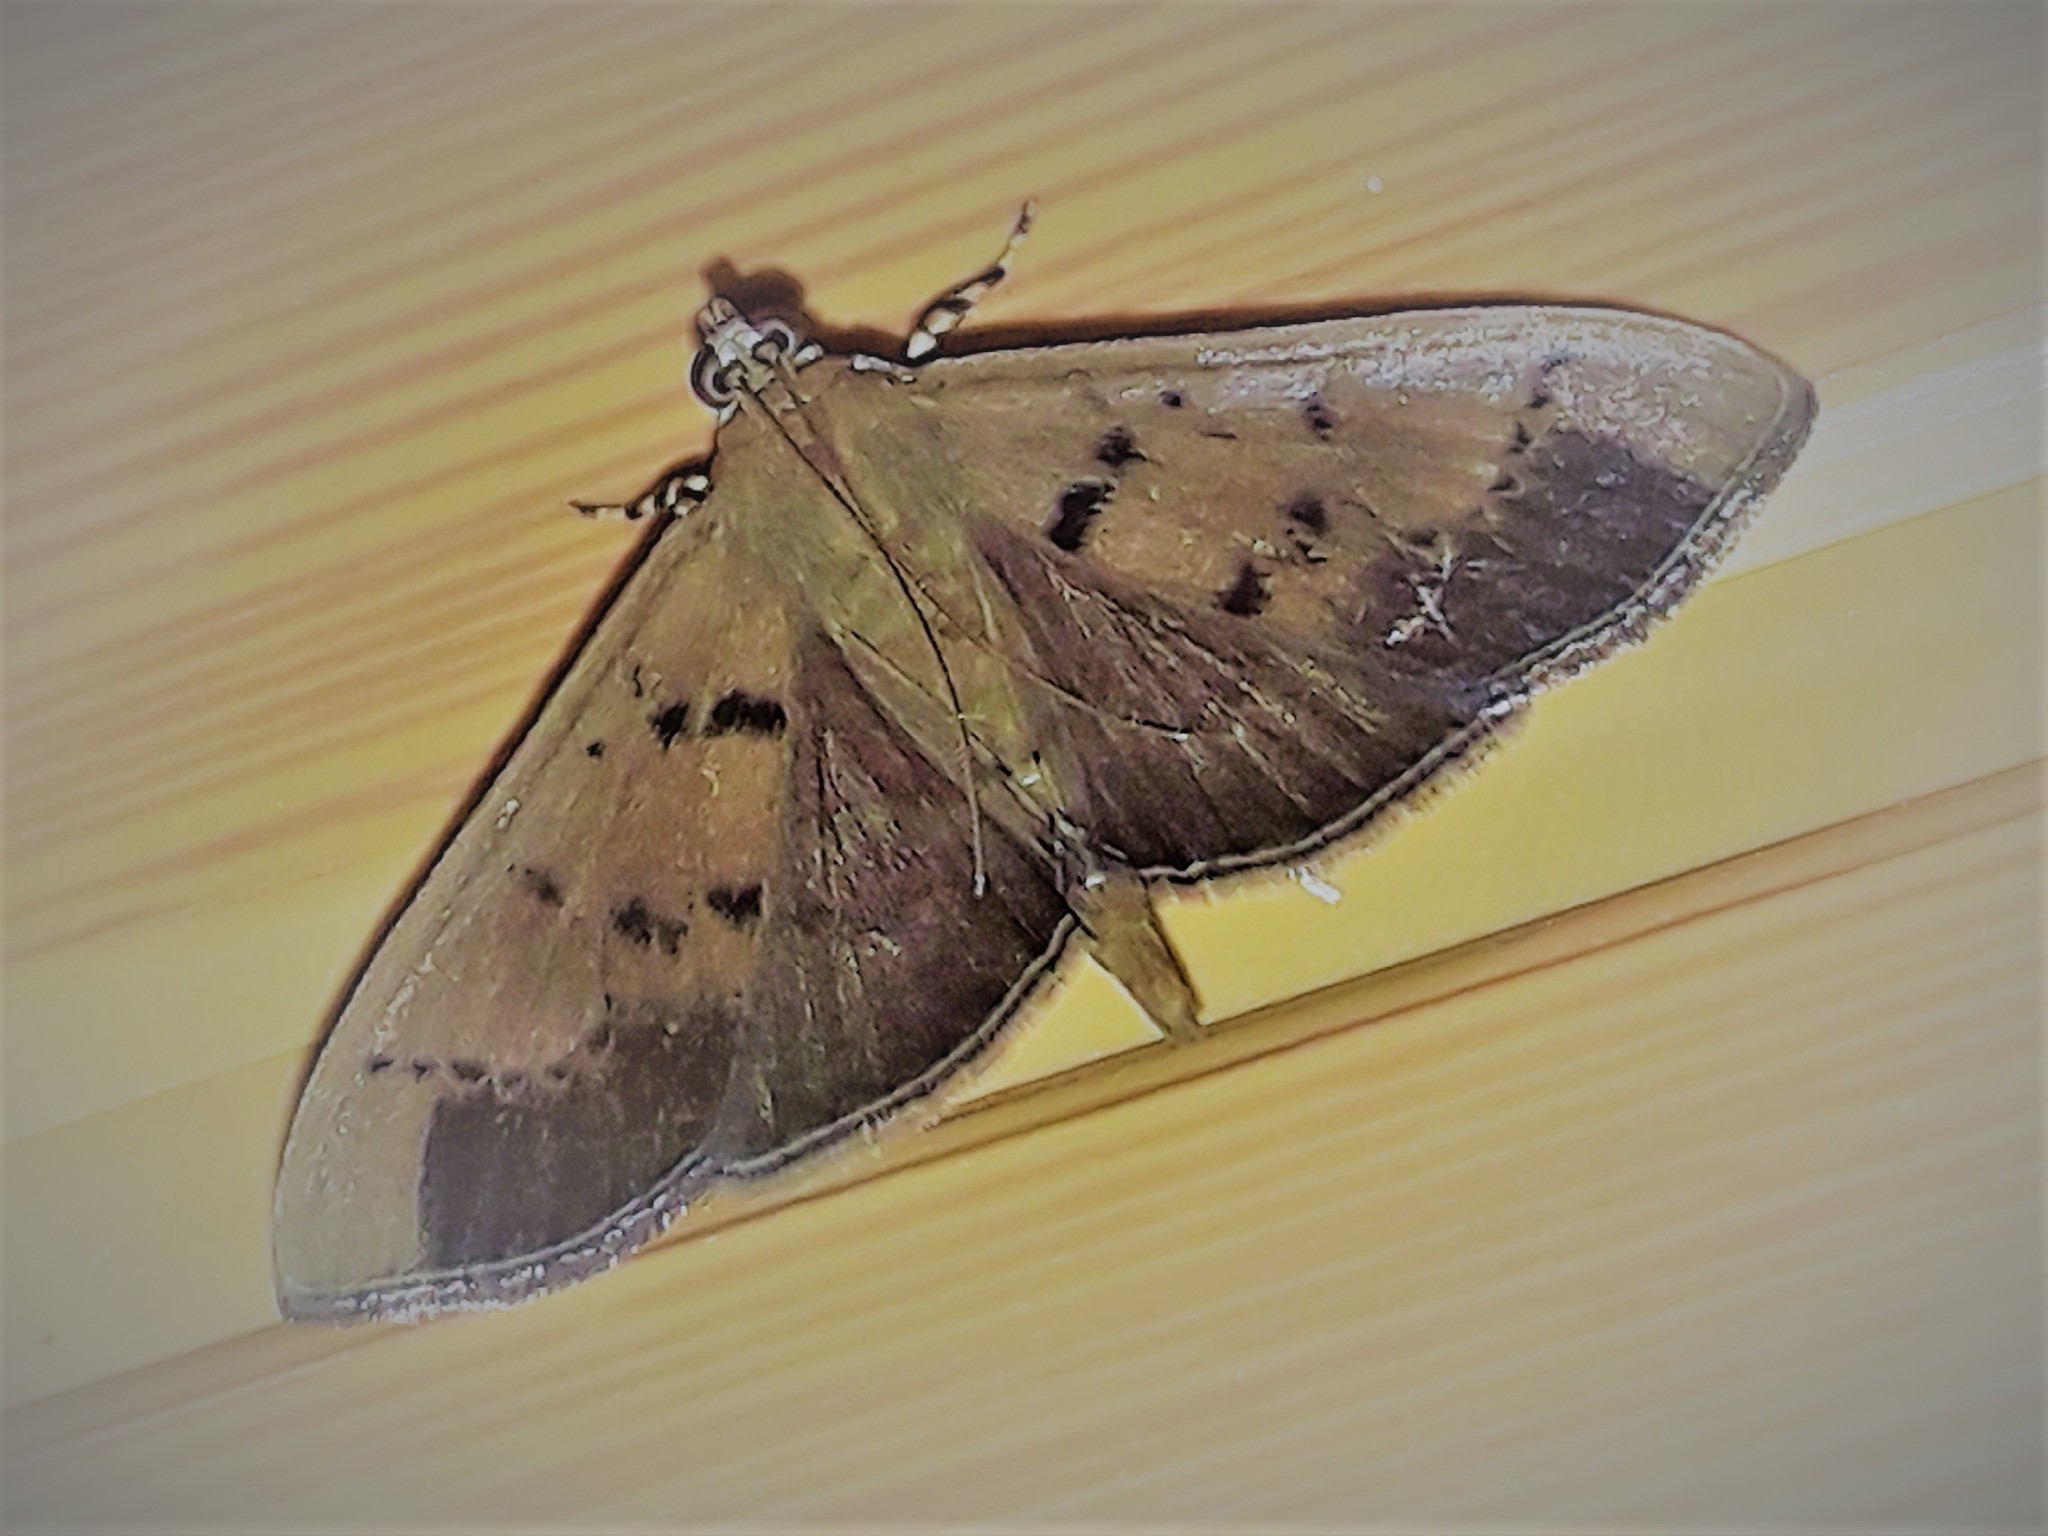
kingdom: Animalia
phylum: Arthropoda
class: Insecta
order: Lepidoptera
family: Crambidae
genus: Omiodes
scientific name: Omiodes martini
